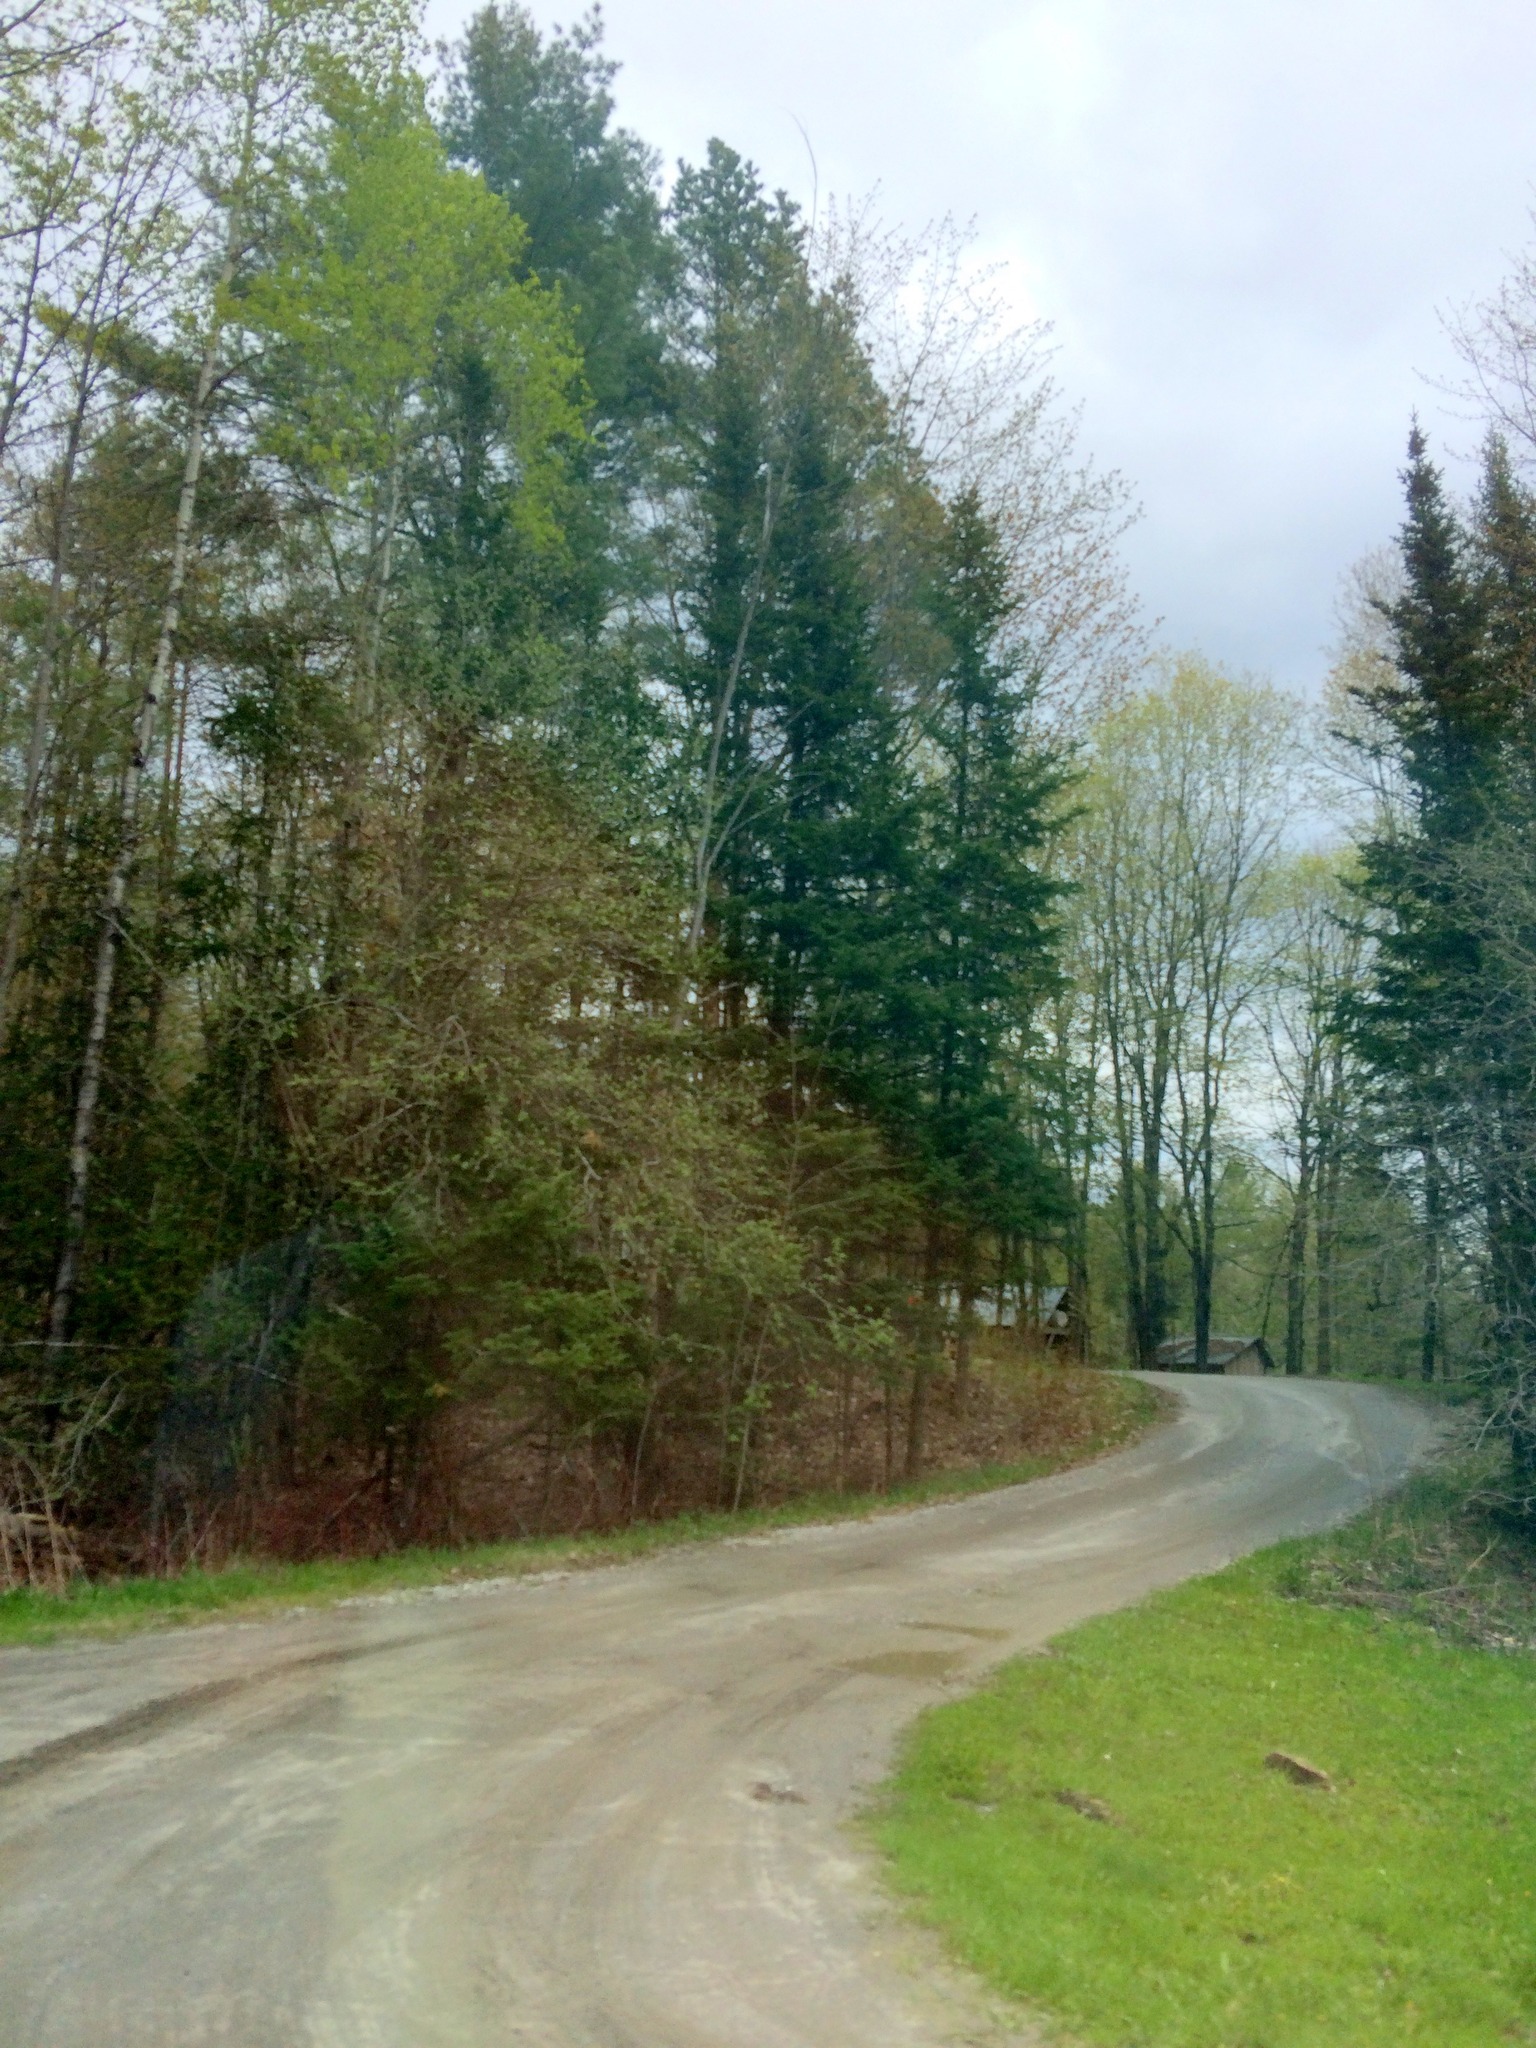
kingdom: Plantae
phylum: Tracheophyta
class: Magnoliopsida
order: Malpighiales
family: Salicaceae
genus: Populus
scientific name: Populus tremuloides
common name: Quaking aspen
